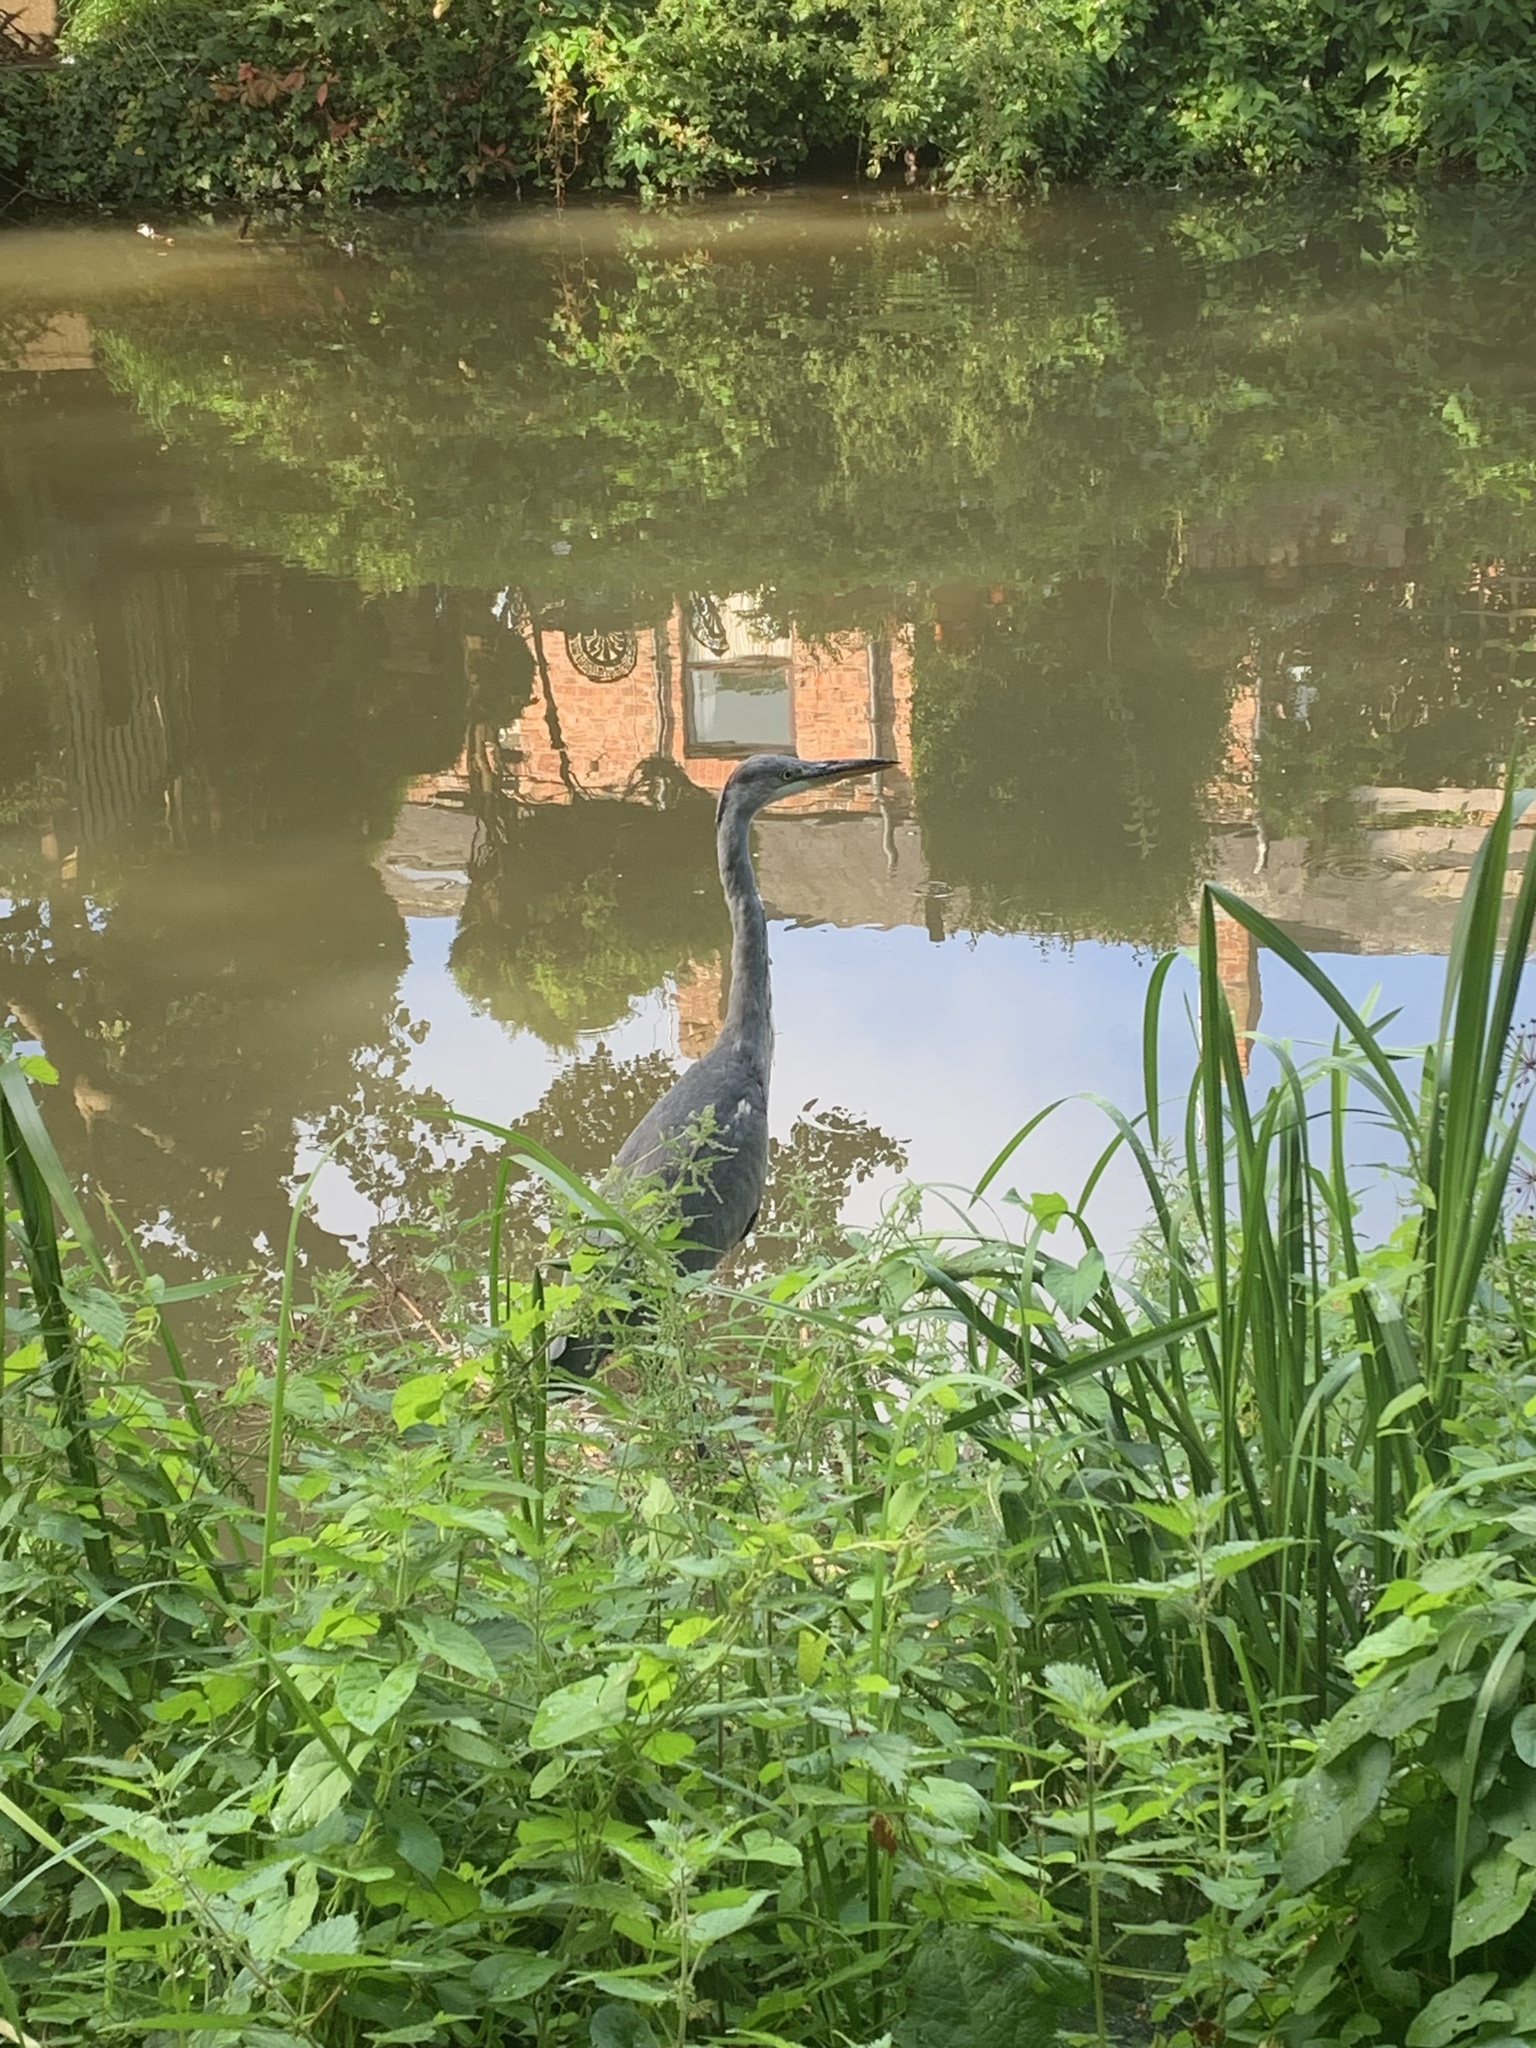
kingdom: Animalia
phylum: Chordata
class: Aves
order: Pelecaniformes
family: Ardeidae
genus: Ardea
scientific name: Ardea cinerea
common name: Grey heron
